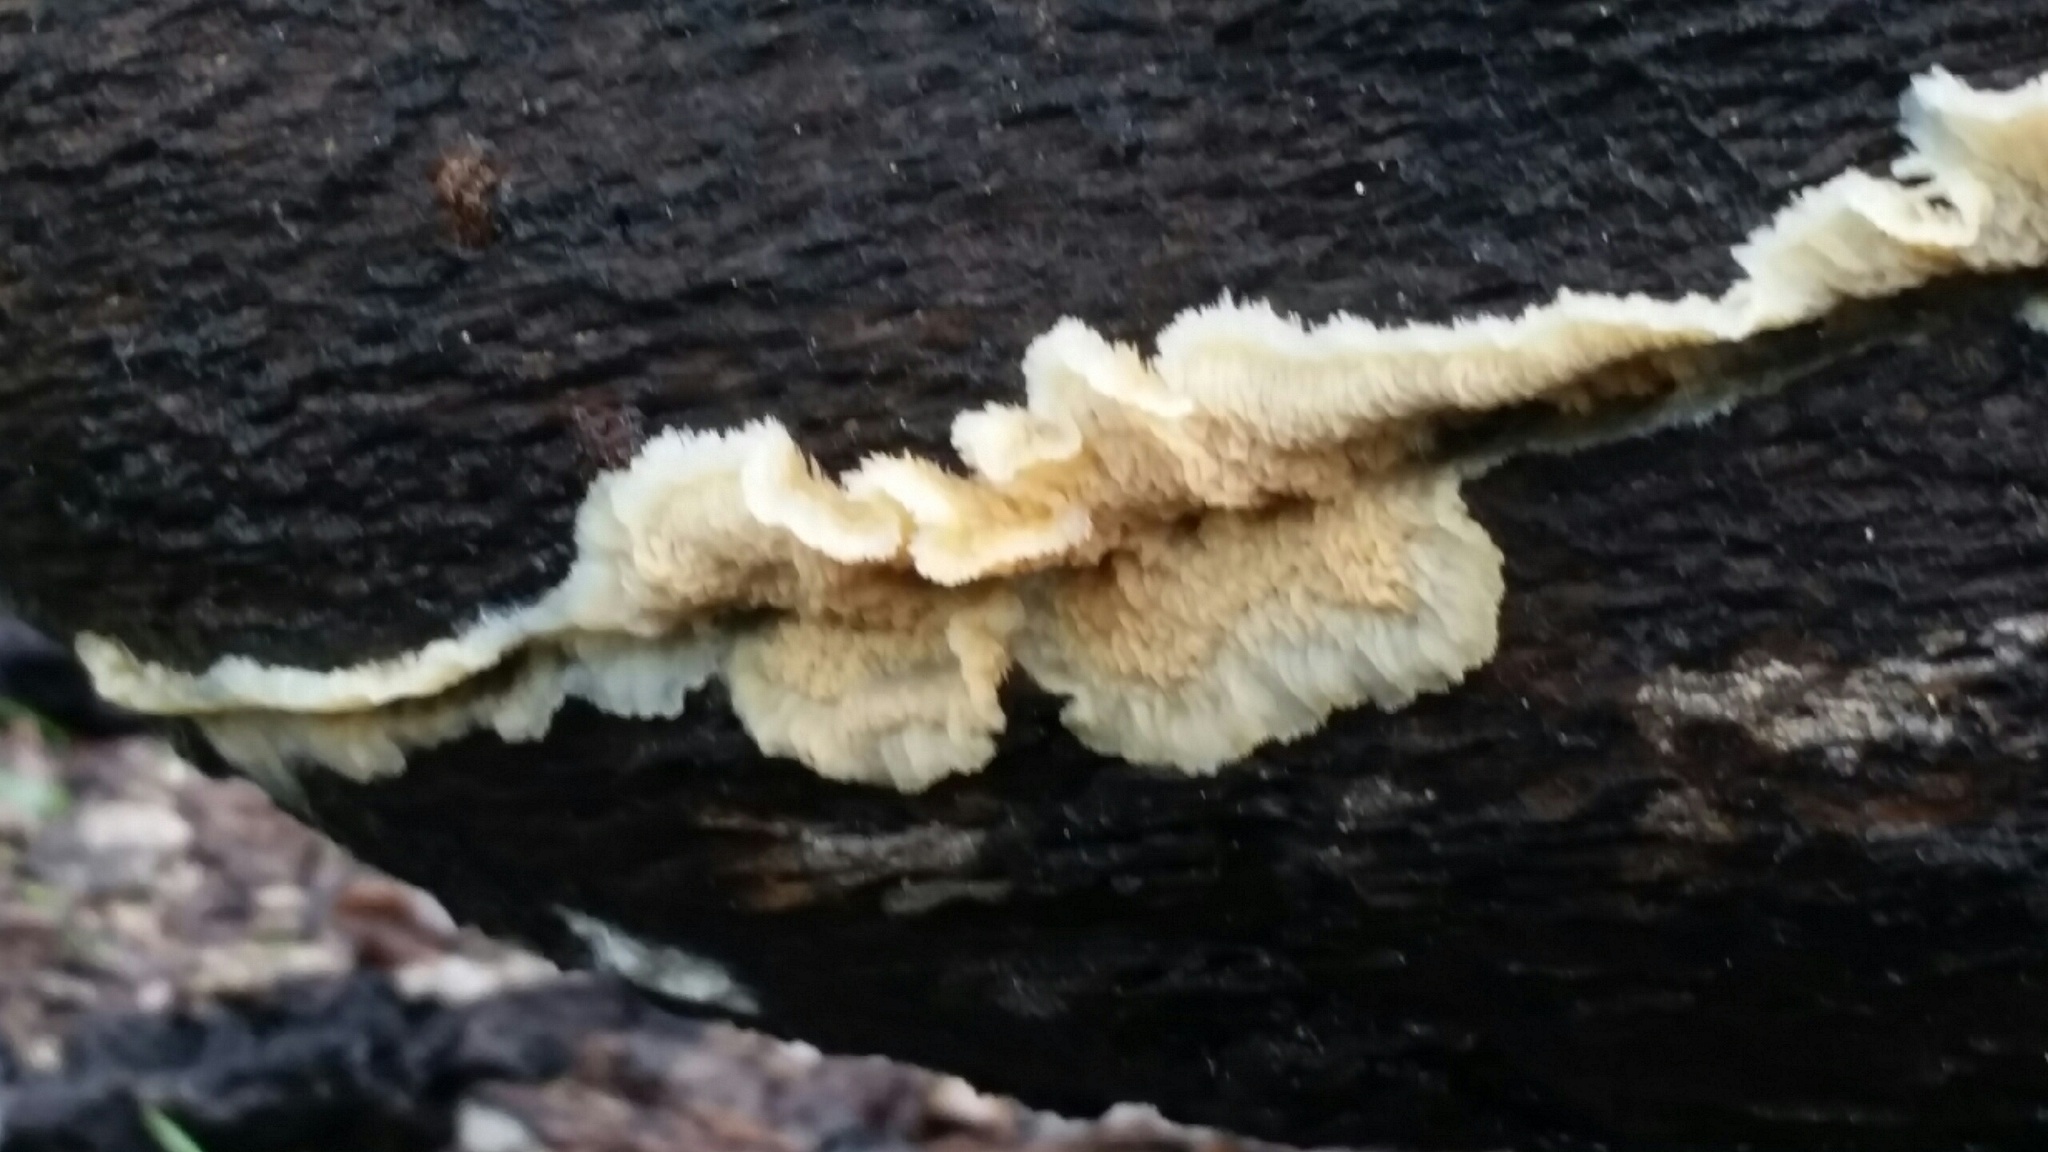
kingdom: Fungi
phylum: Basidiomycota
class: Agaricomycetes
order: Polyporales
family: Meruliaceae
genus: Phlebia
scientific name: Phlebia tremellosa
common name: Jelly rot
